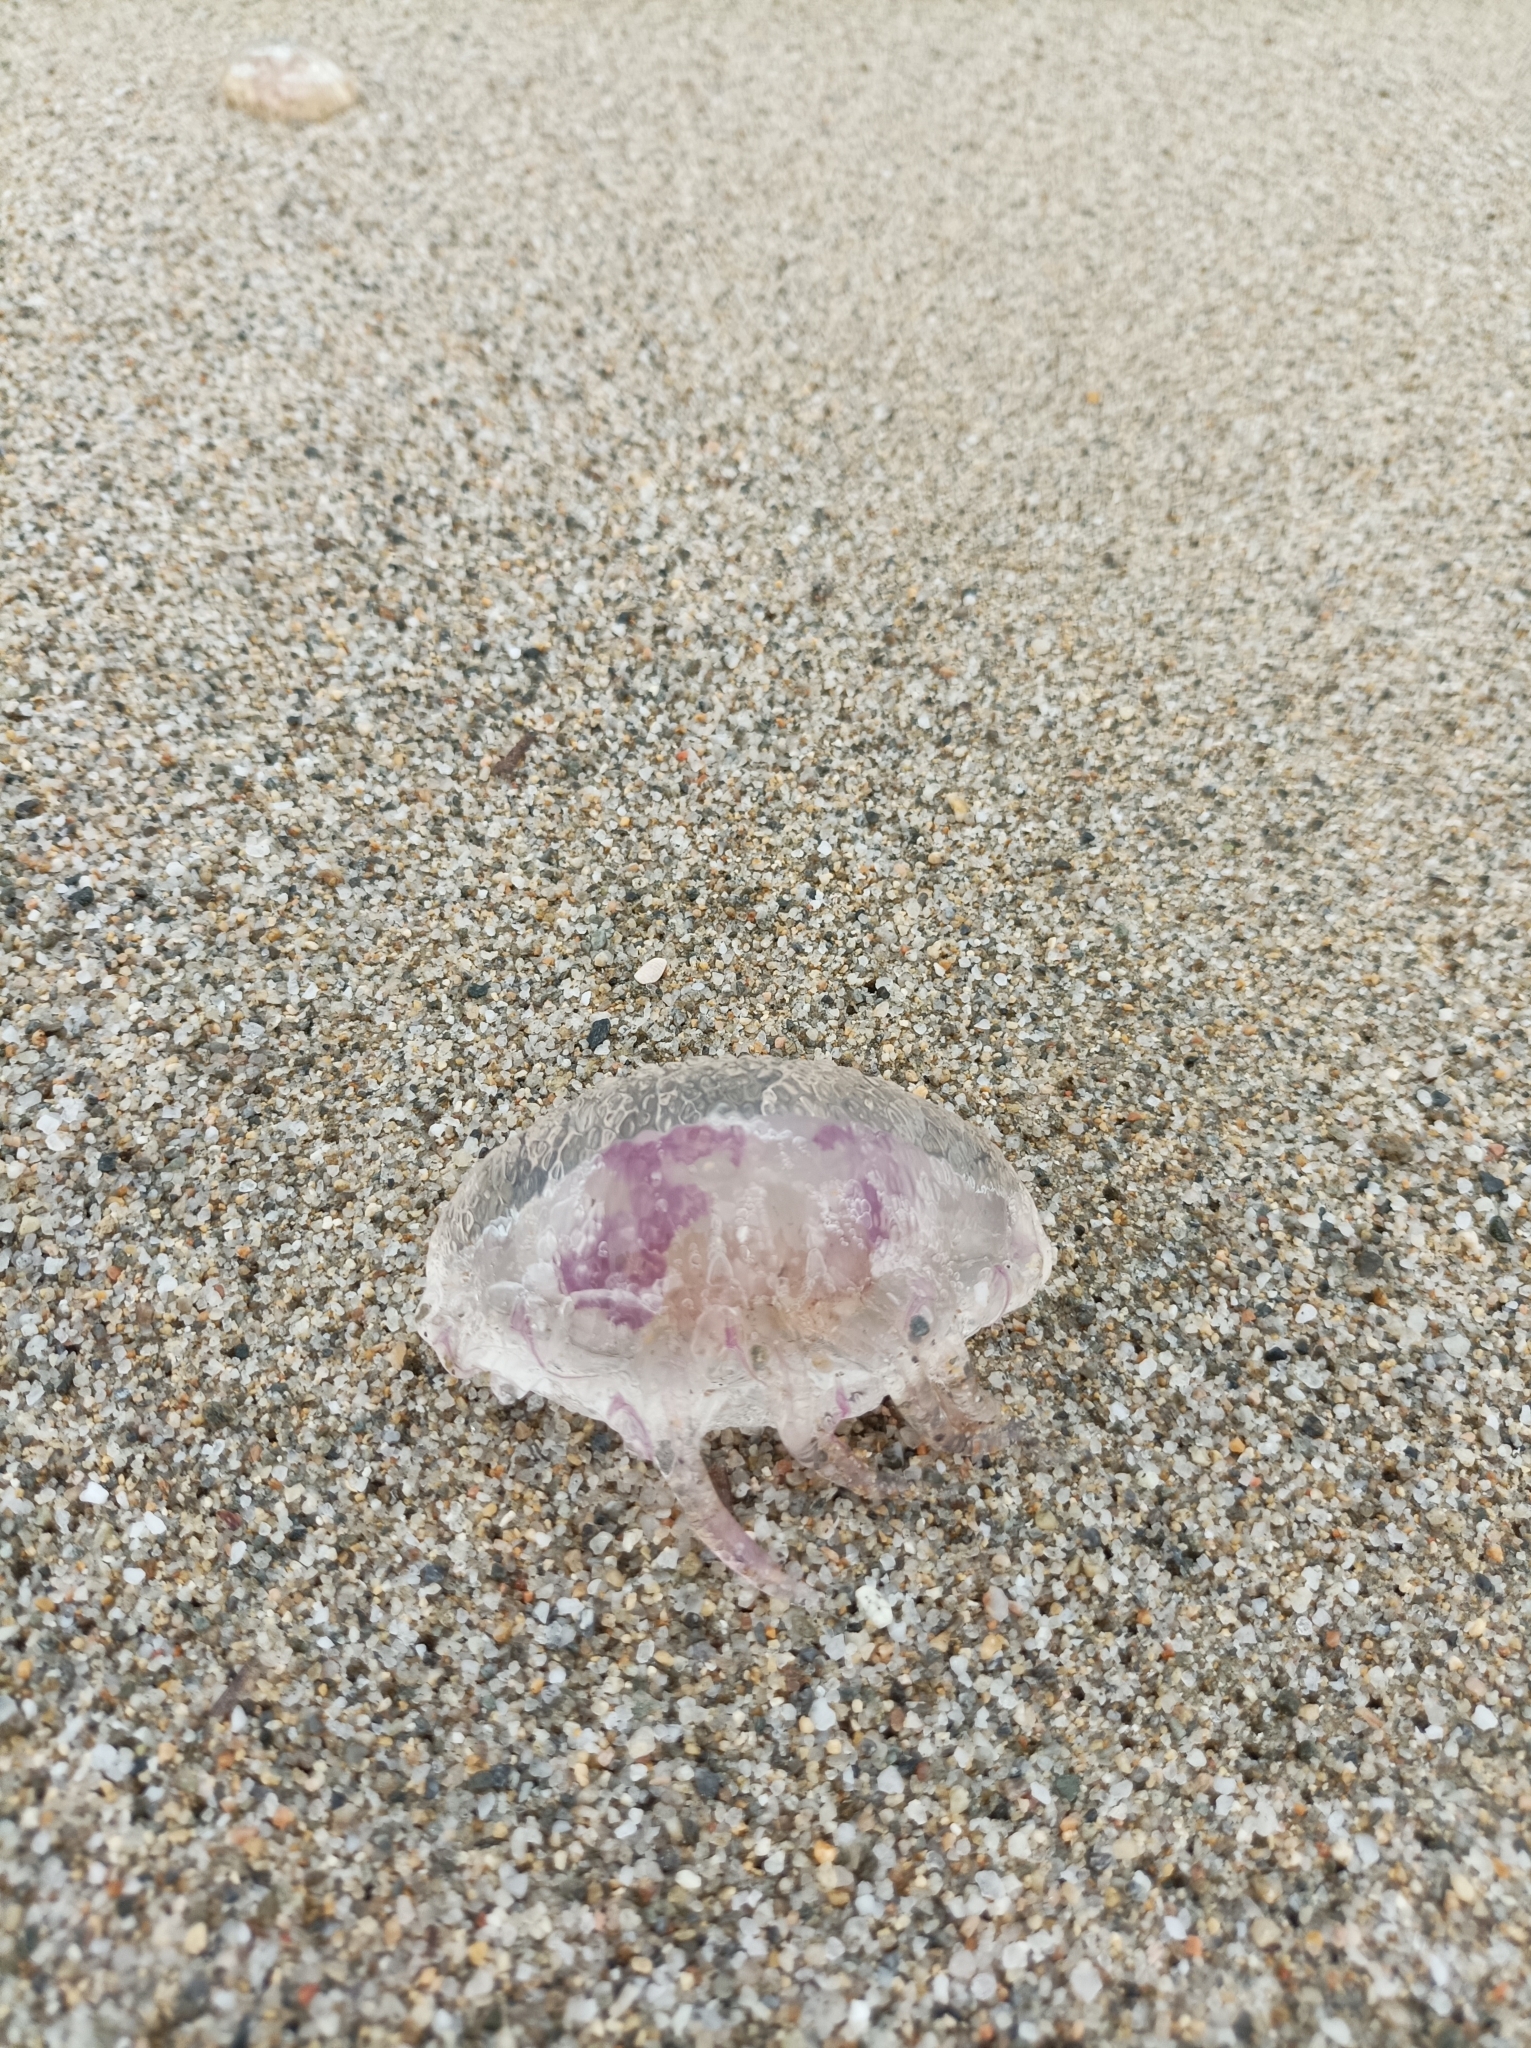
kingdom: Animalia
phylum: Cnidaria
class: Scyphozoa
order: Semaeostomeae
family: Pelagiidae
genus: Pelagia
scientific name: Pelagia noctiluca
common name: Mauve stinger
